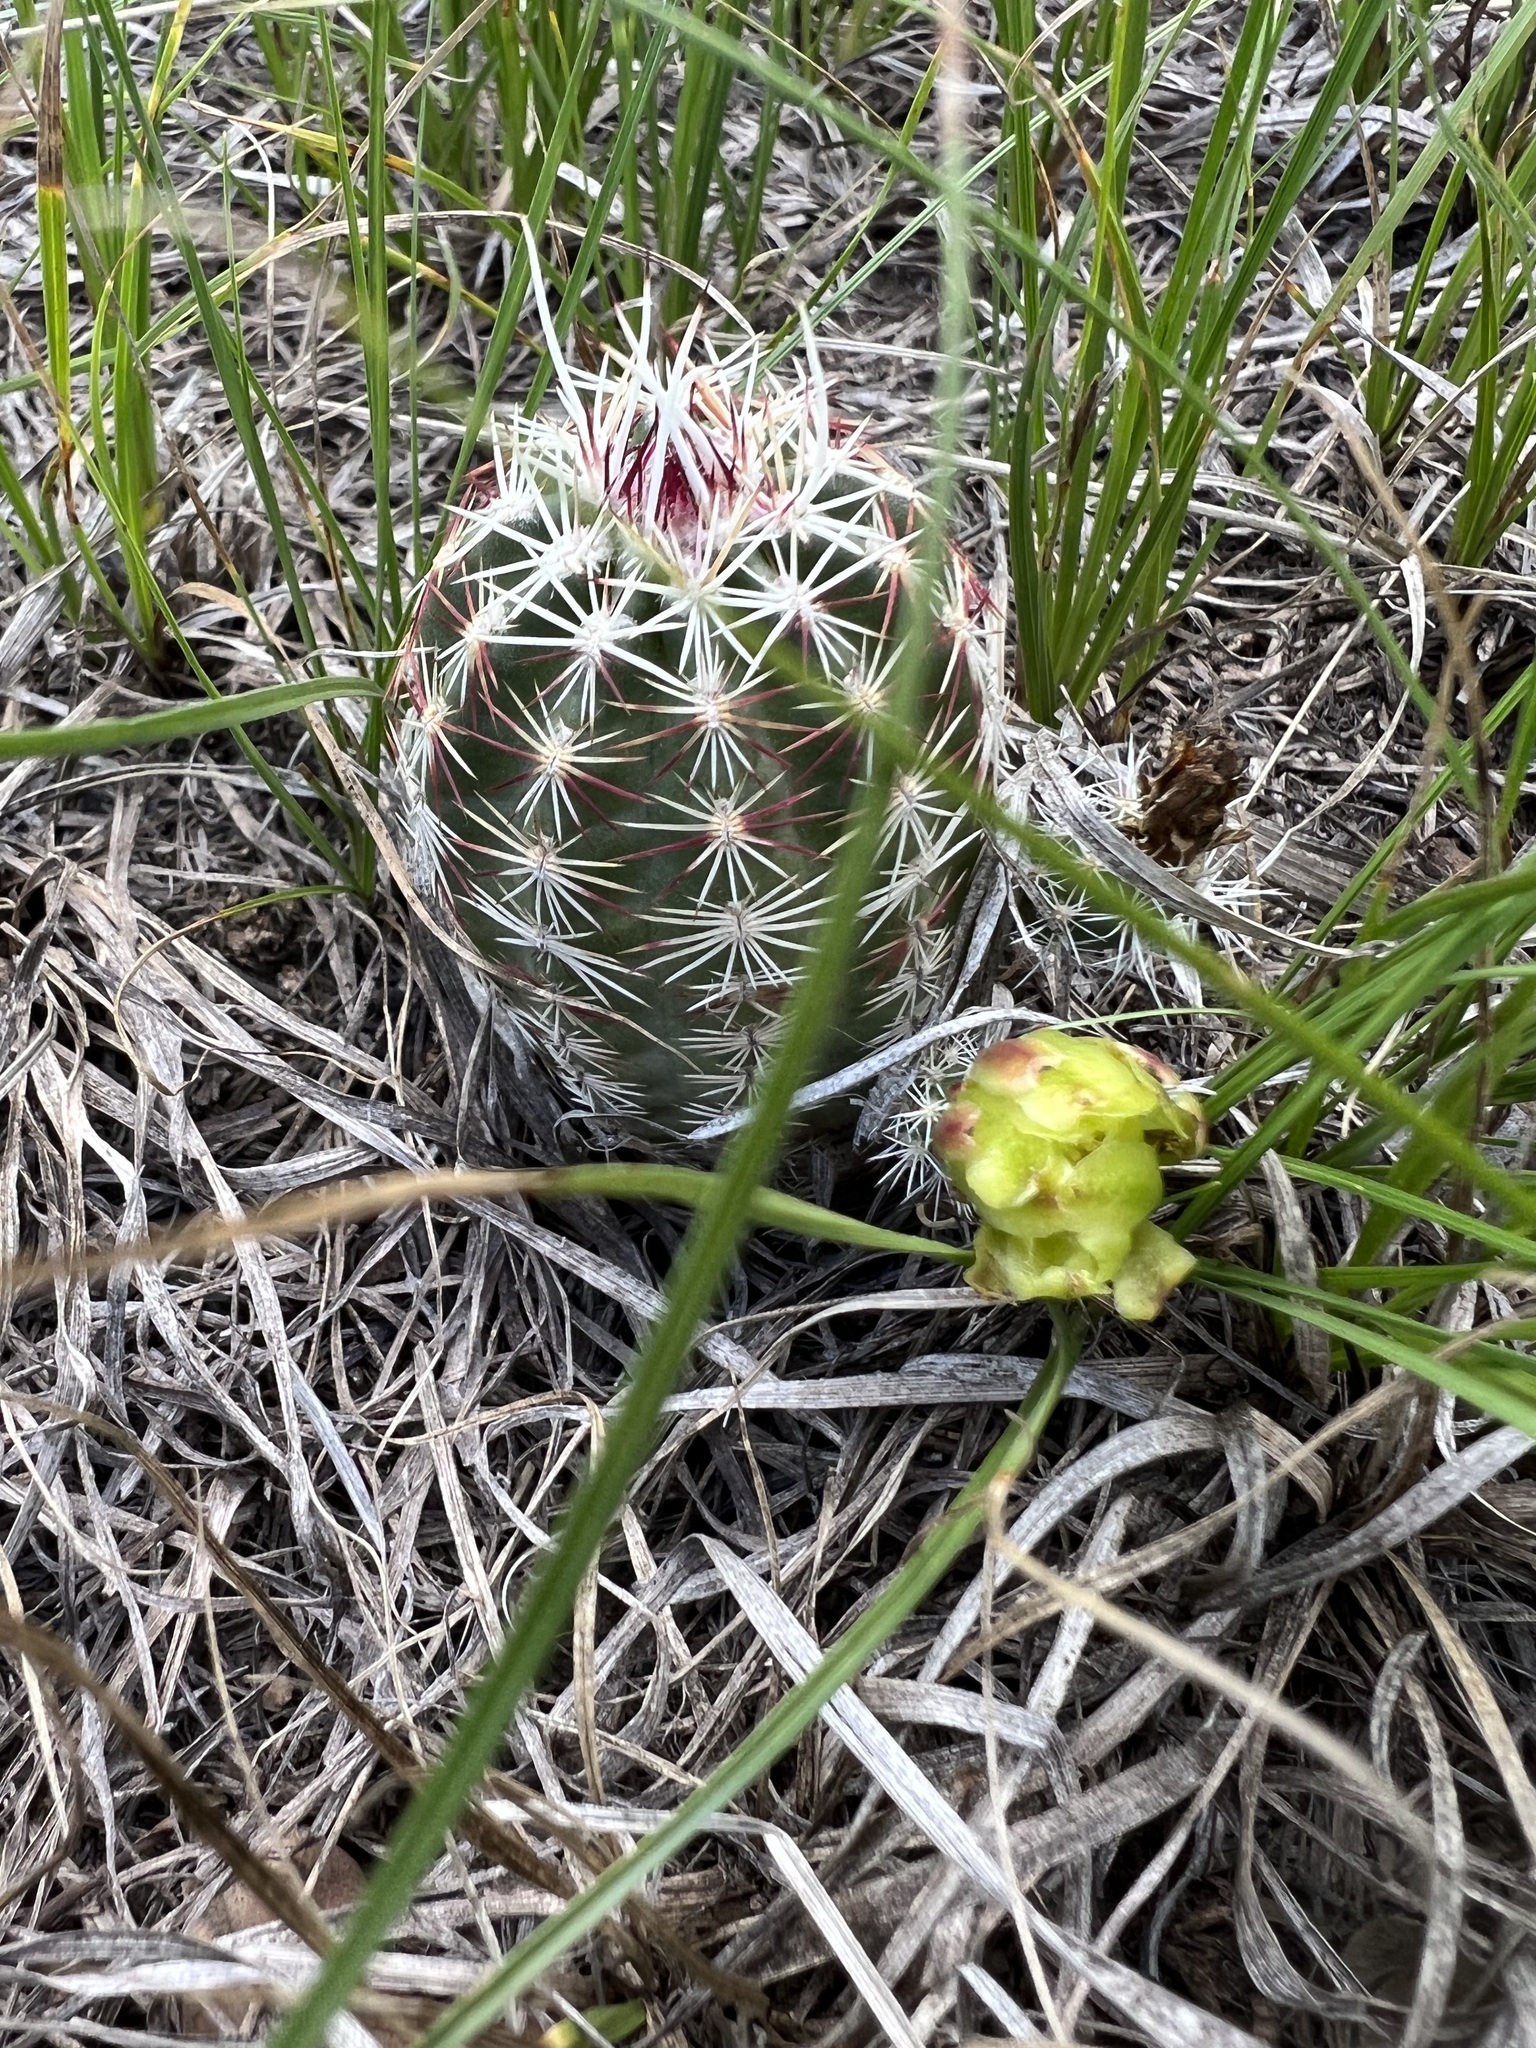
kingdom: Plantae
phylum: Tracheophyta
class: Magnoliopsida
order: Caryophyllales
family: Cactaceae
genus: Echinocereus
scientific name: Echinocereus viridiflorus
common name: Nylon hedgehog cactus
